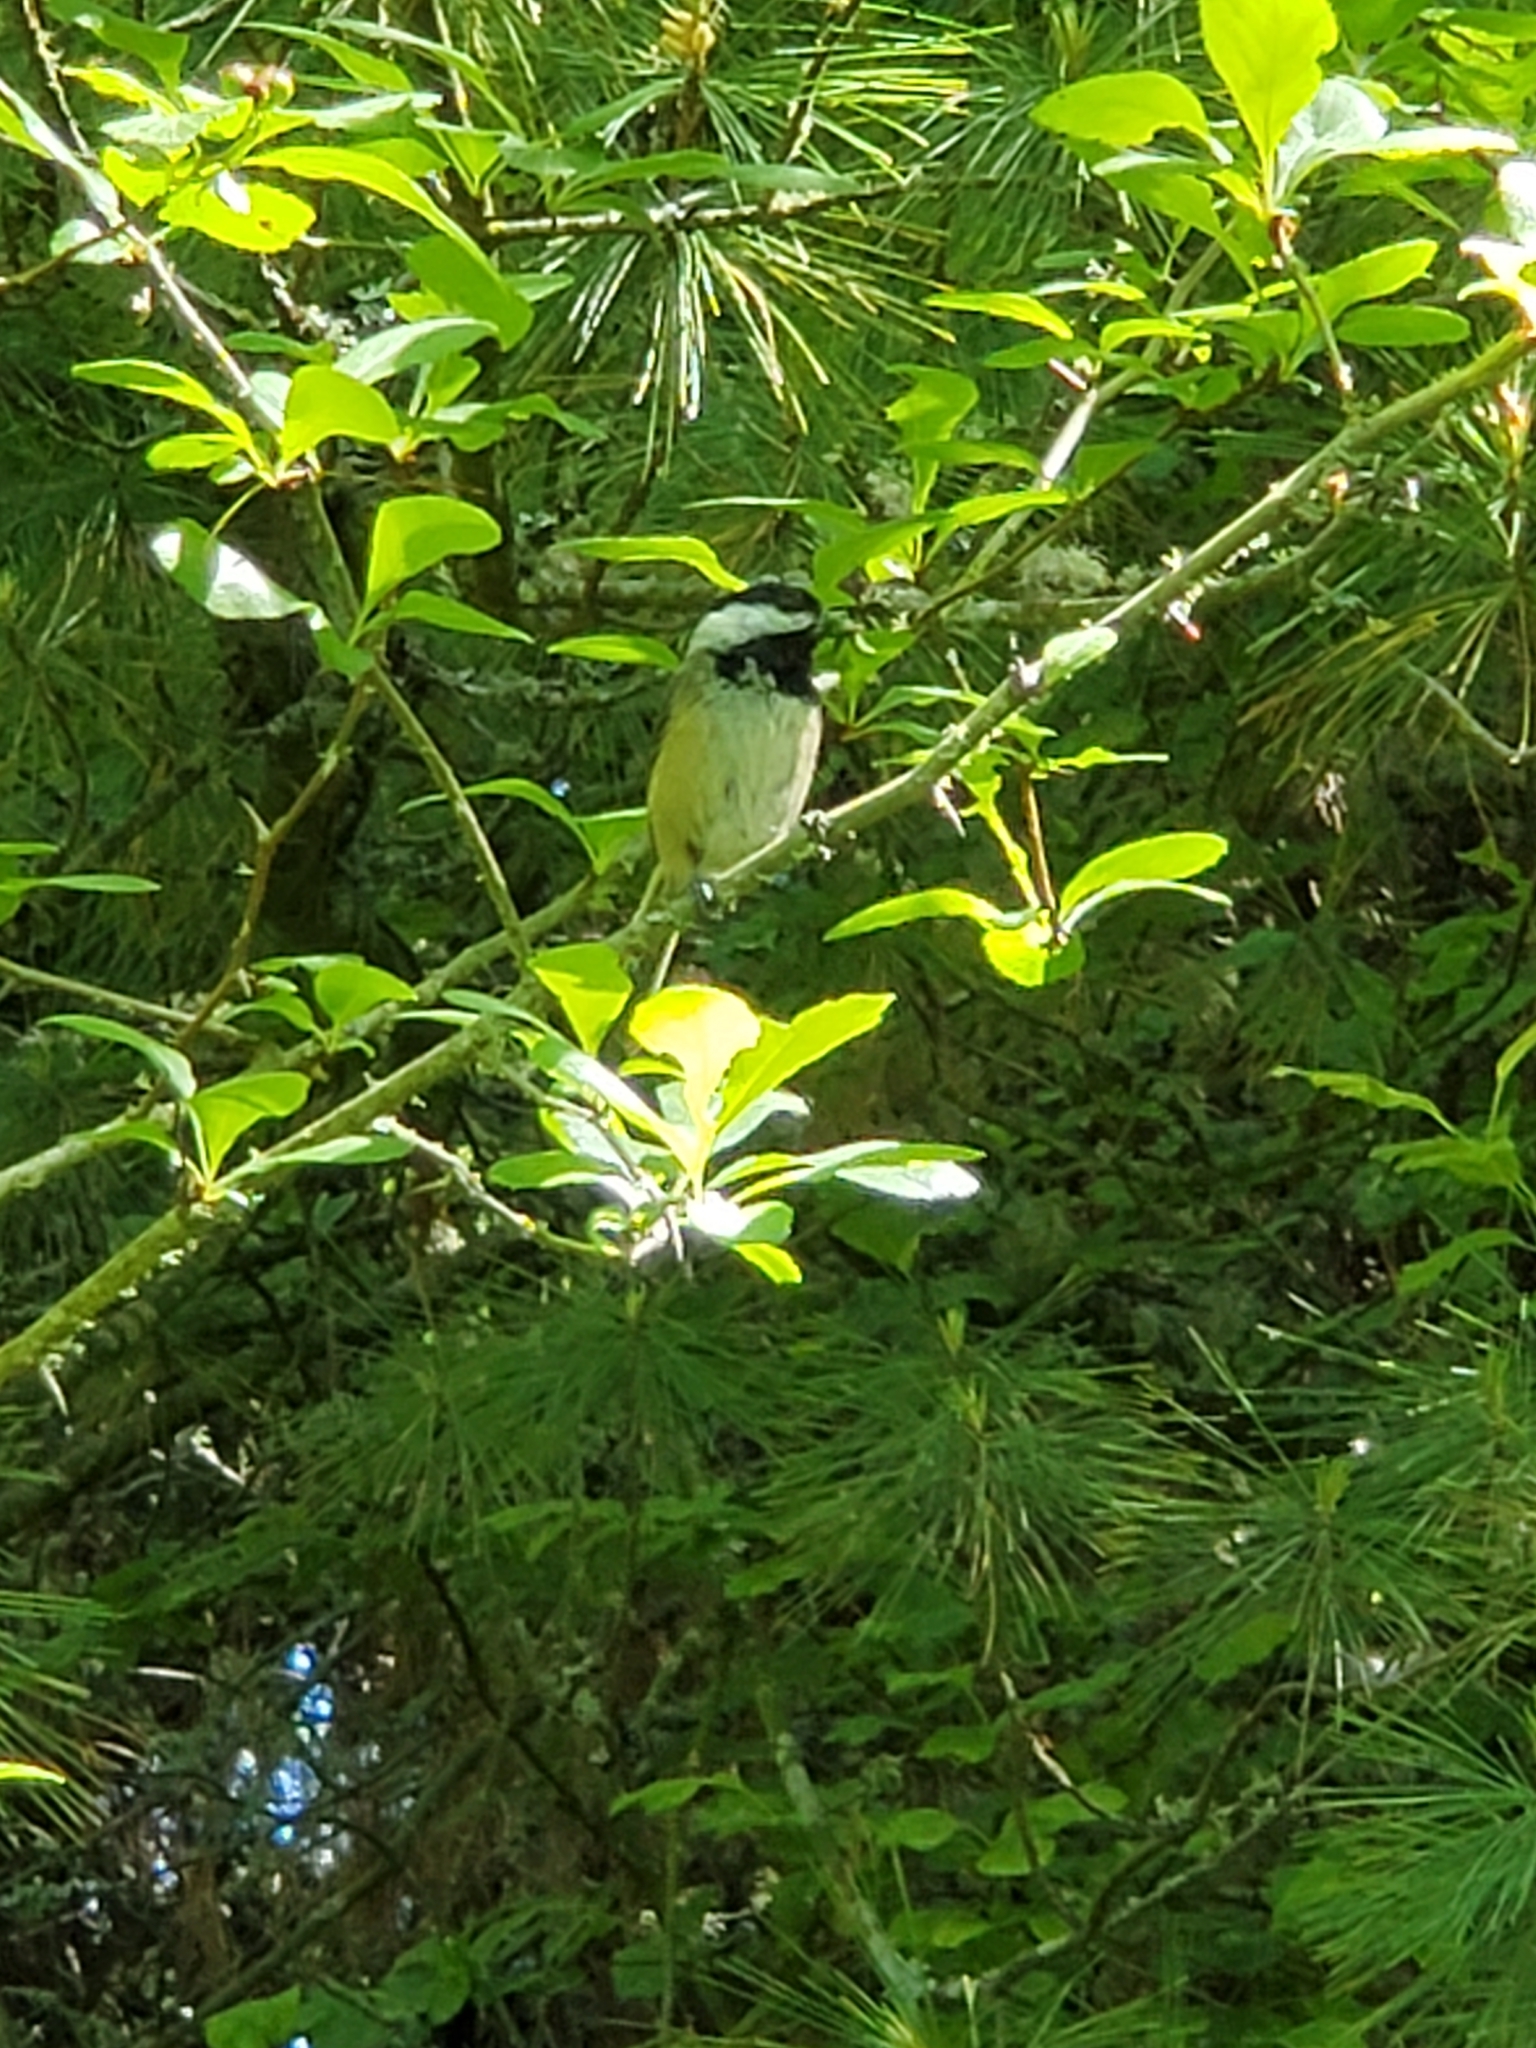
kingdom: Animalia
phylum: Chordata
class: Aves
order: Passeriformes
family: Paridae
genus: Poecile
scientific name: Poecile atricapillus
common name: Black-capped chickadee
